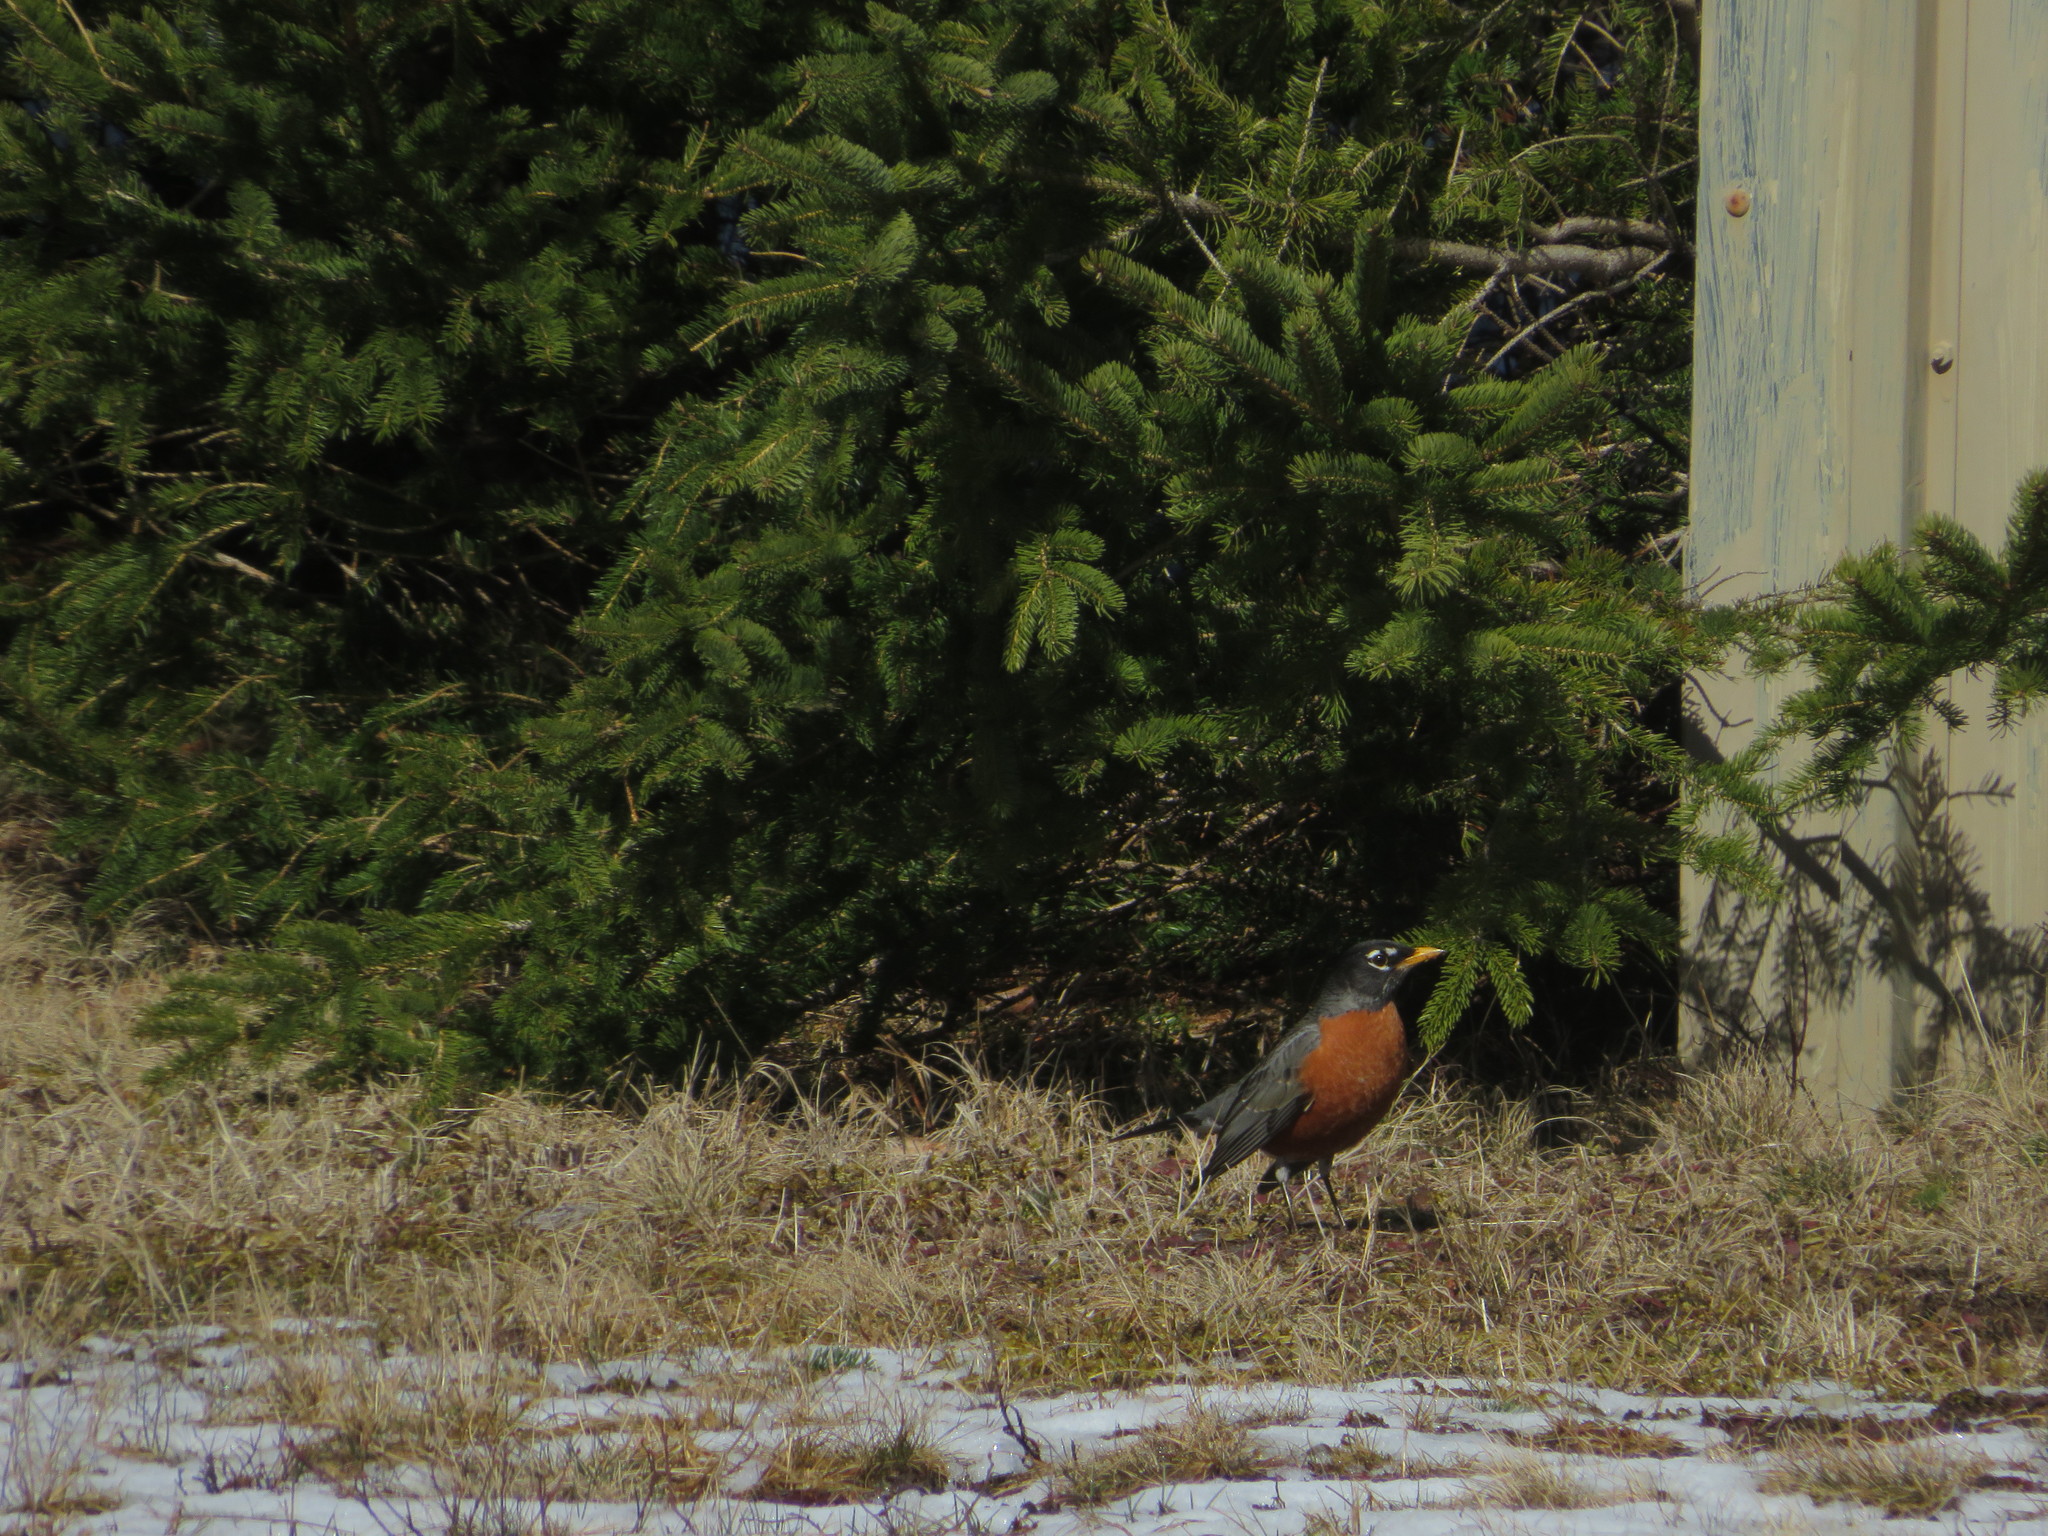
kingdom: Animalia
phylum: Chordata
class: Aves
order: Passeriformes
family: Turdidae
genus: Turdus
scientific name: Turdus migratorius
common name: American robin
